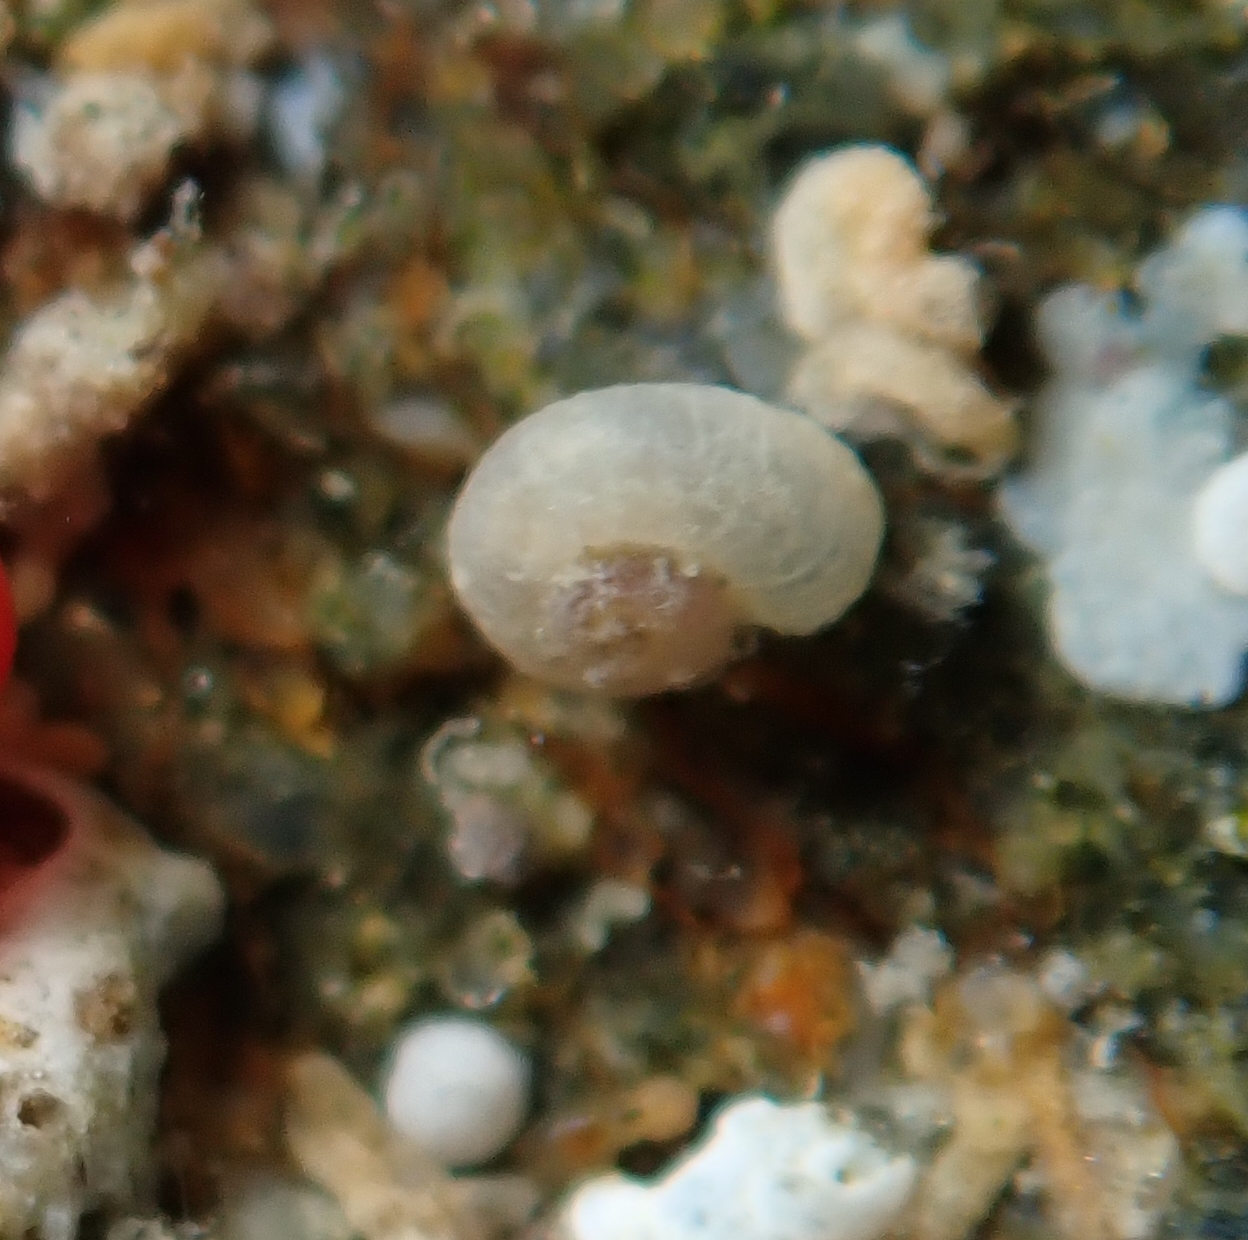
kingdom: Animalia
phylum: Mollusca
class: Gastropoda
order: Trochida
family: Skeneidae
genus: Zalipais
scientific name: Zalipais lissa
